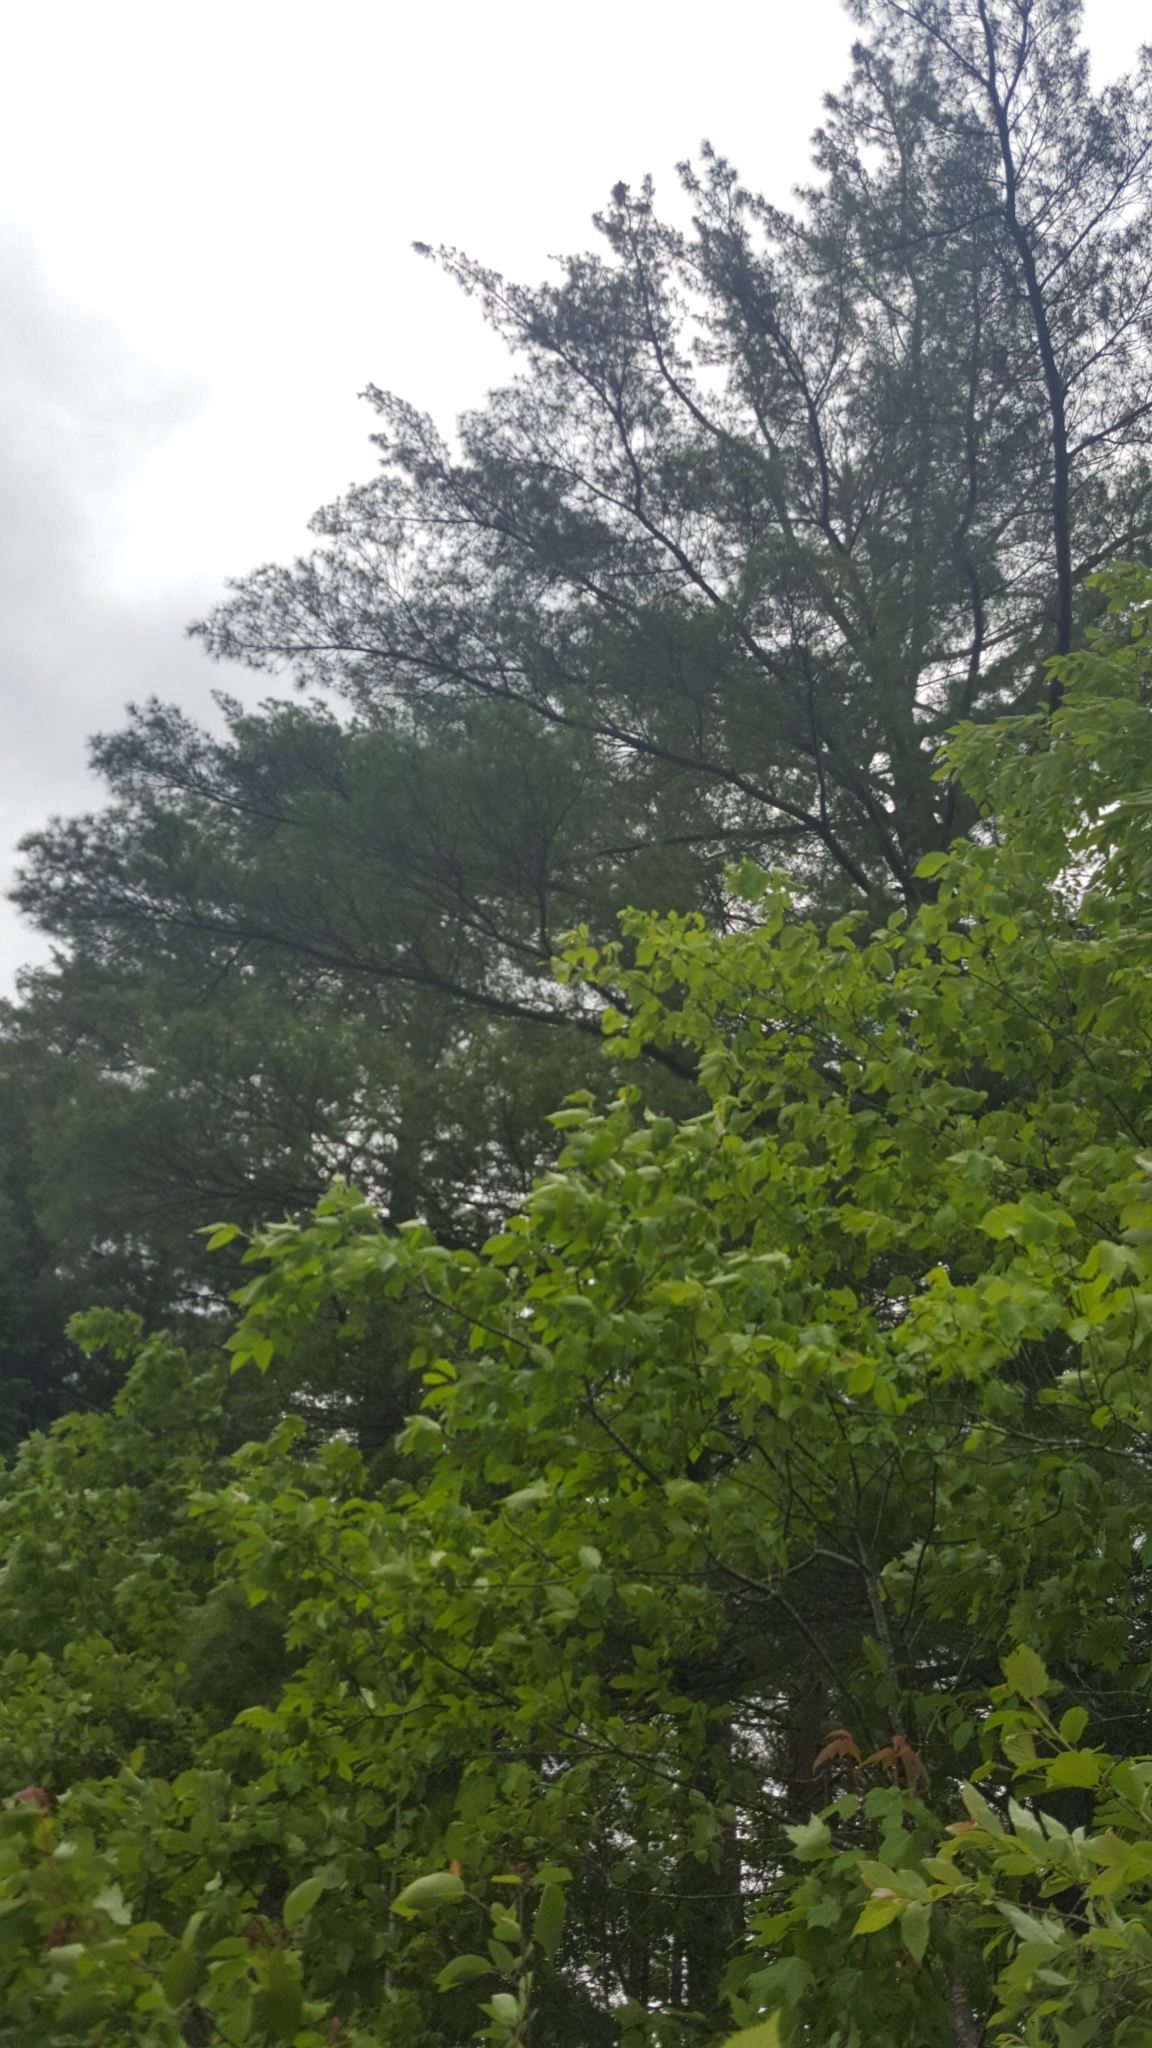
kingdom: Plantae
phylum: Tracheophyta
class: Pinopsida
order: Pinales
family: Pinaceae
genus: Pinus
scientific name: Pinus strobus
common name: Weymouth pine
